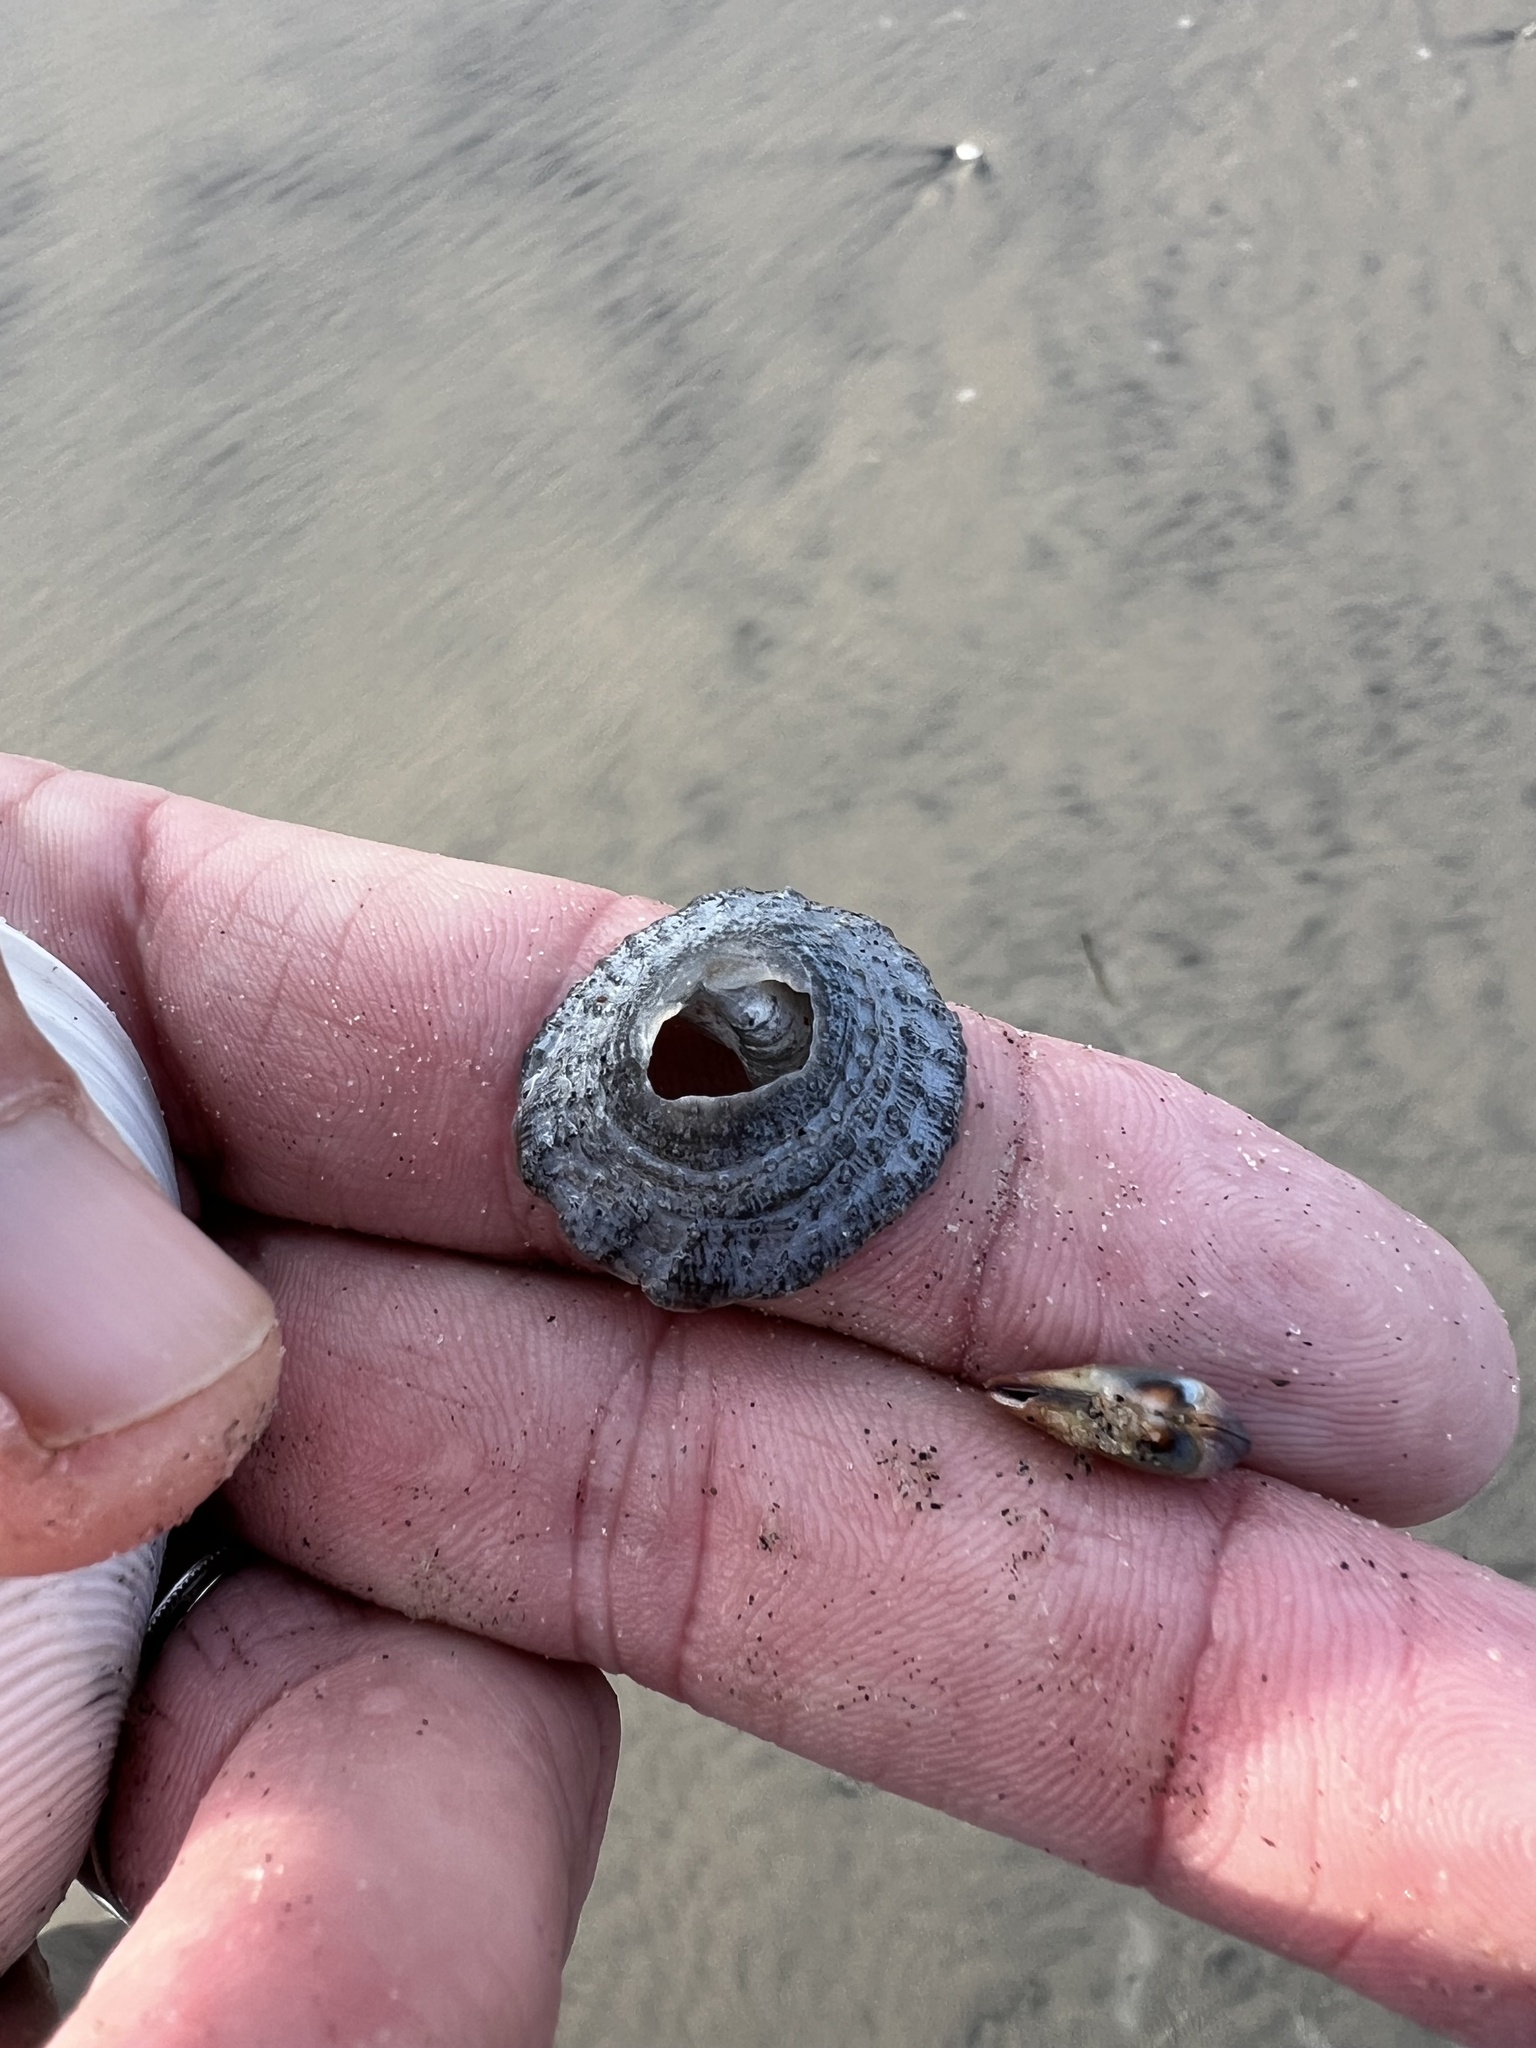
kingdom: Animalia
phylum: Mollusca
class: Gastropoda
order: Littorinimorpha
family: Calyptraeidae
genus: Crucibulum
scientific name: Crucibulum spinosum
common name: Spiny cup-and-saucer
